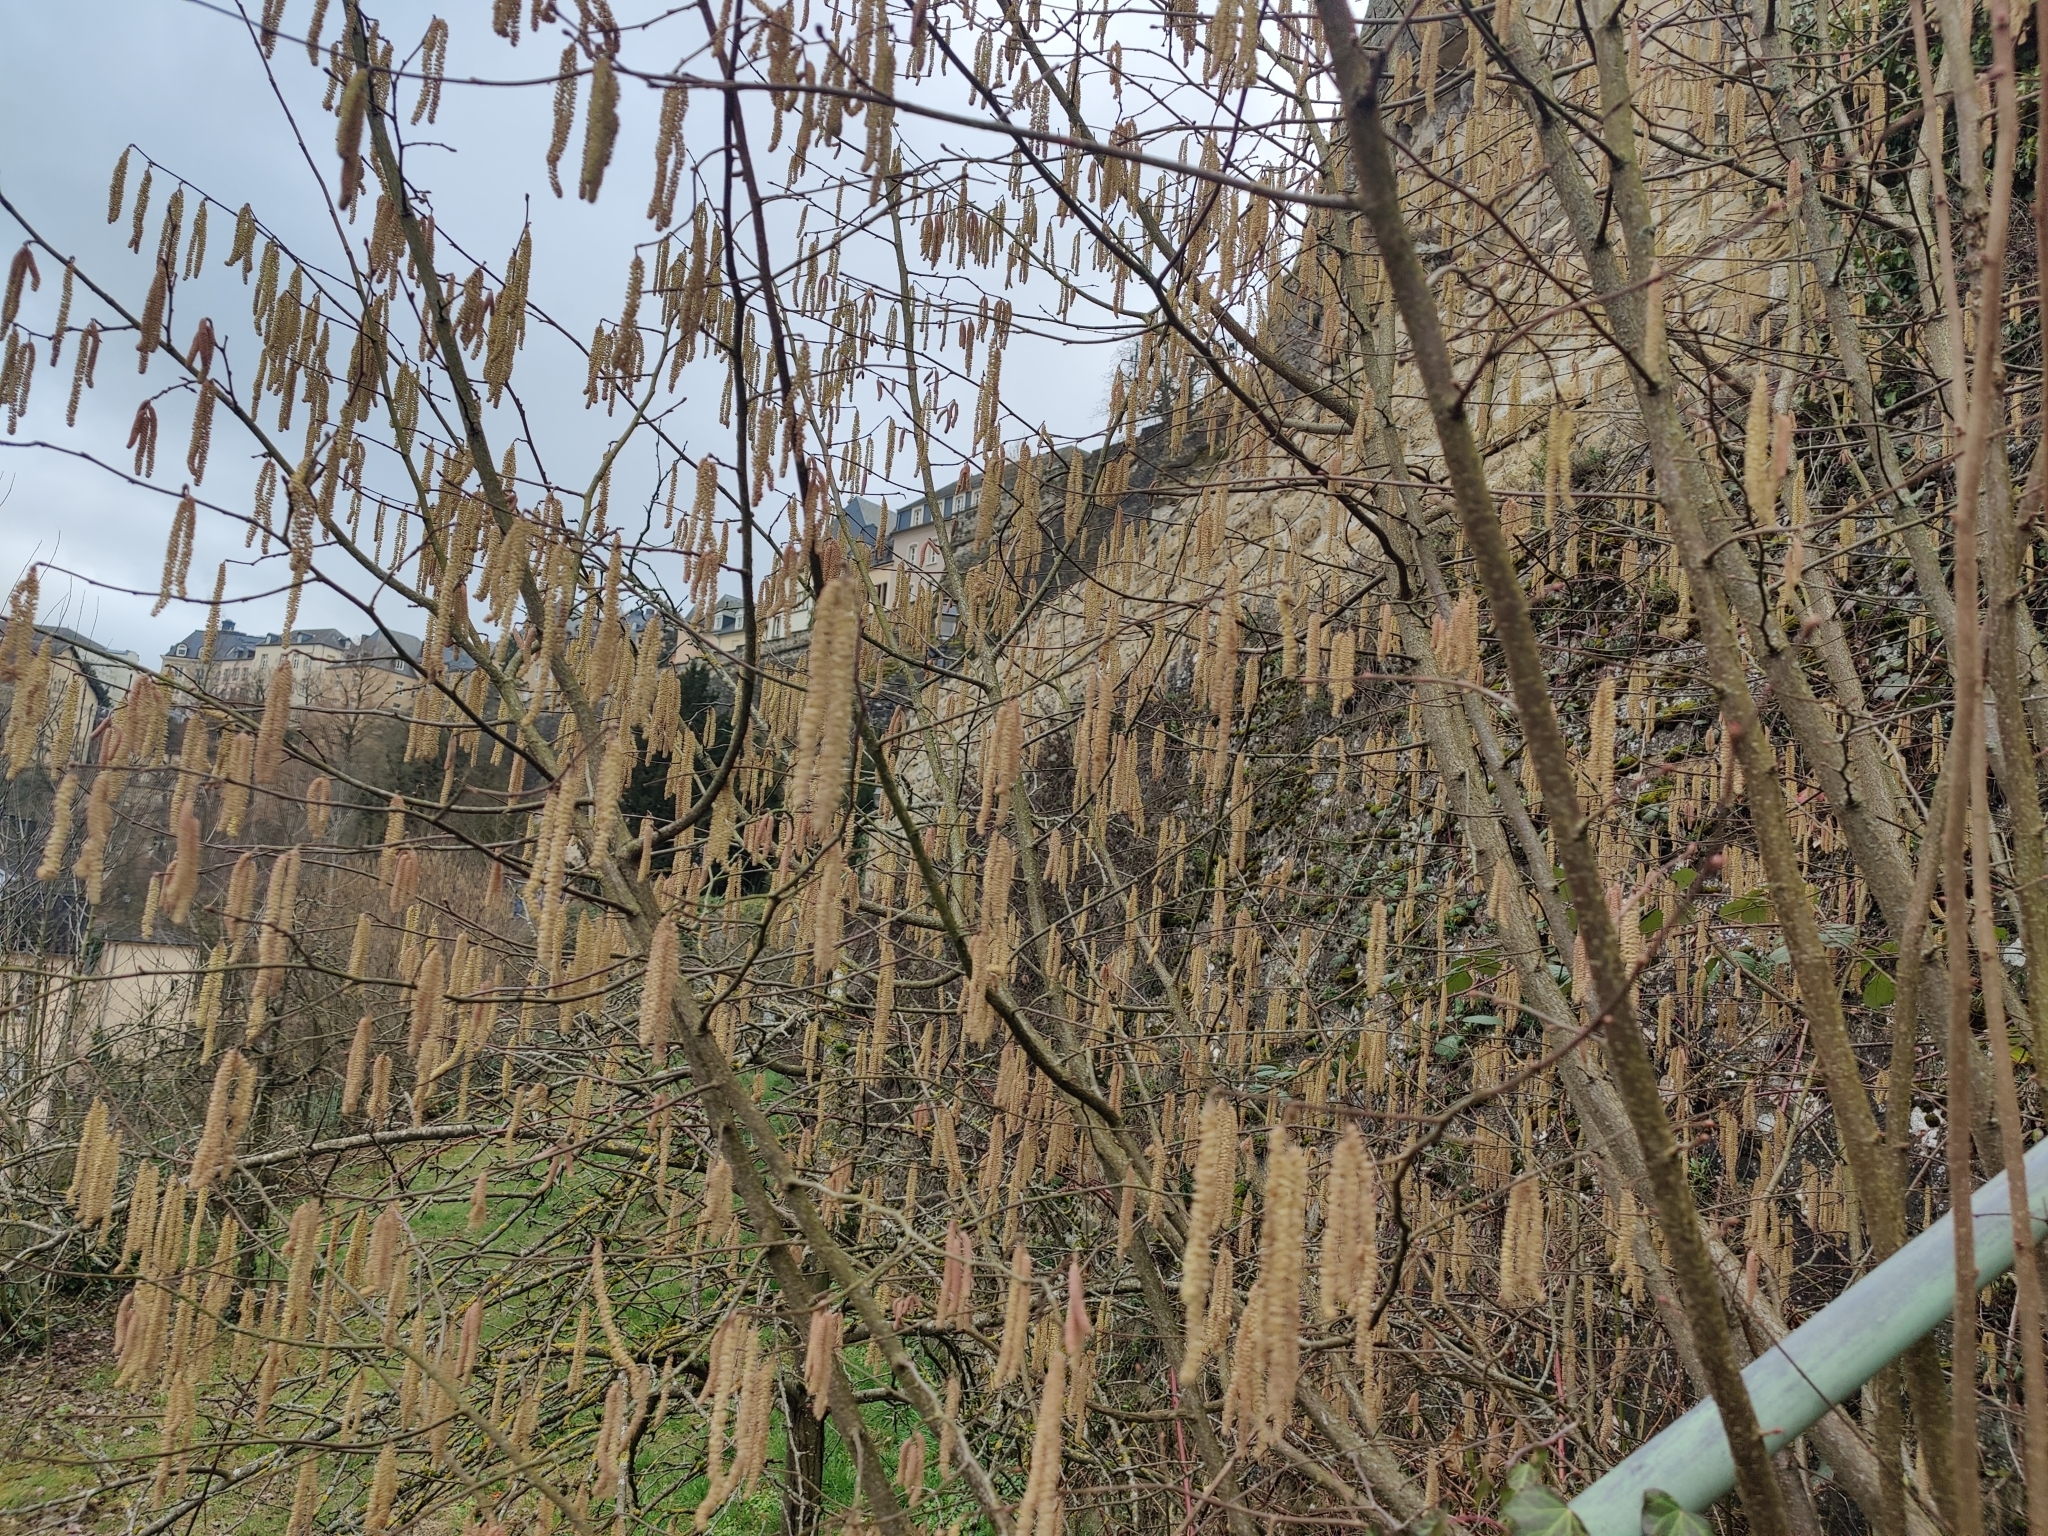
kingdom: Plantae
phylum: Tracheophyta
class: Magnoliopsida
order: Fagales
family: Betulaceae
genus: Corylus
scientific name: Corylus avellana
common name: European hazel
